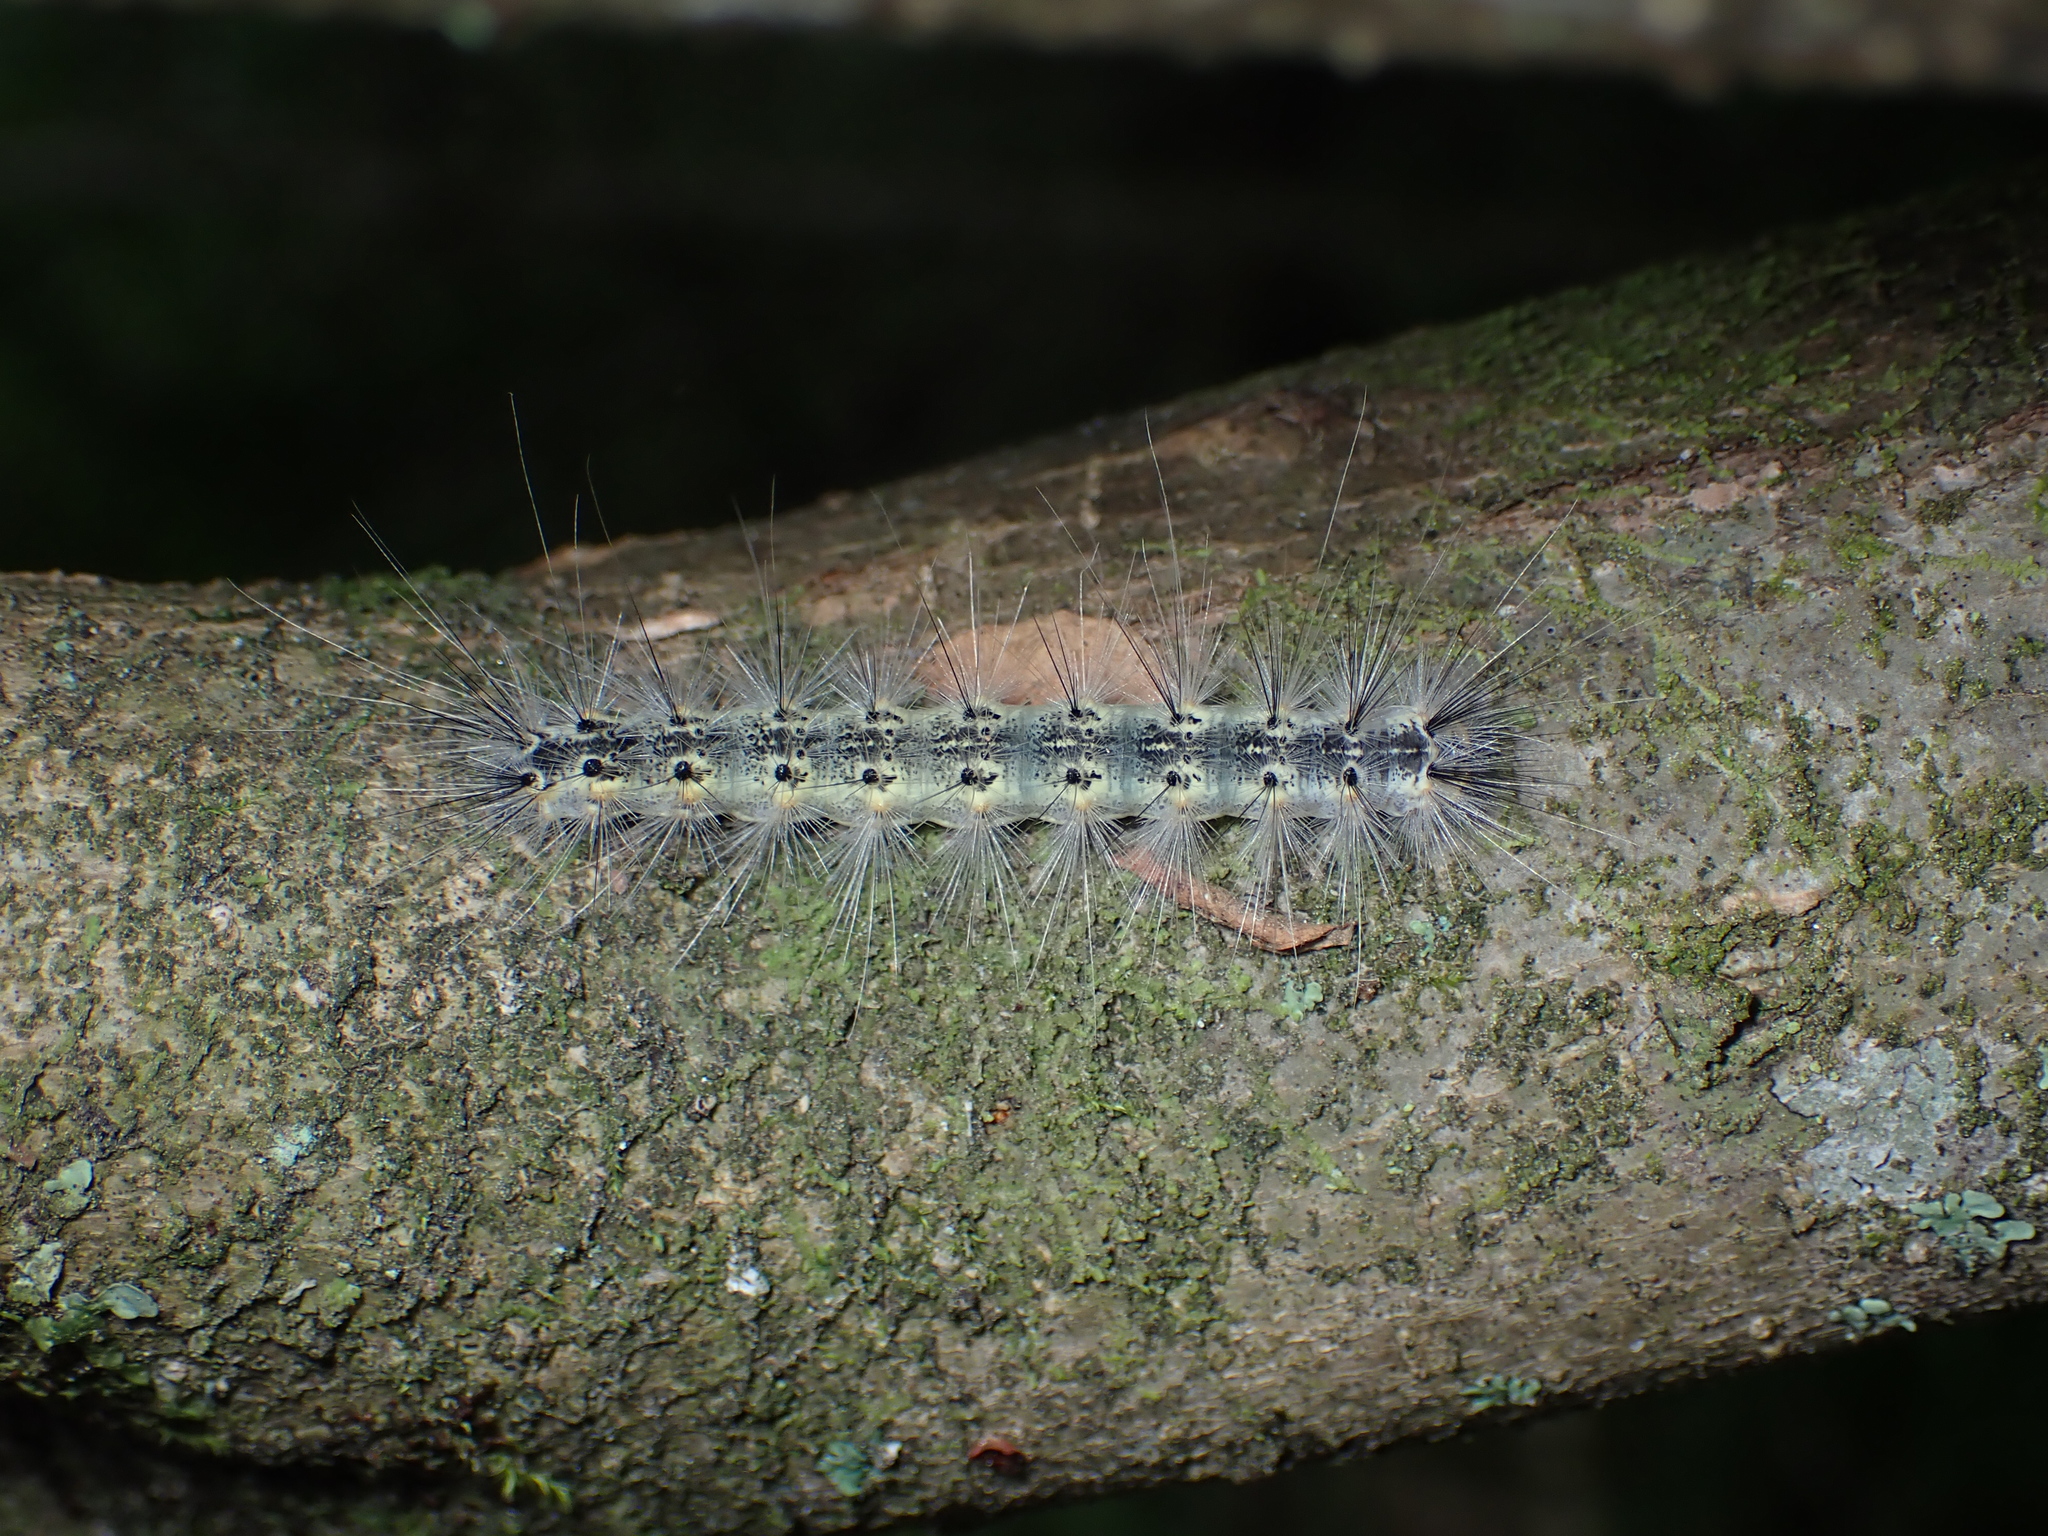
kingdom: Animalia
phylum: Arthropoda
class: Insecta
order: Lepidoptera
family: Erebidae
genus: Hyphantria
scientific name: Hyphantria cunea
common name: American white moth
